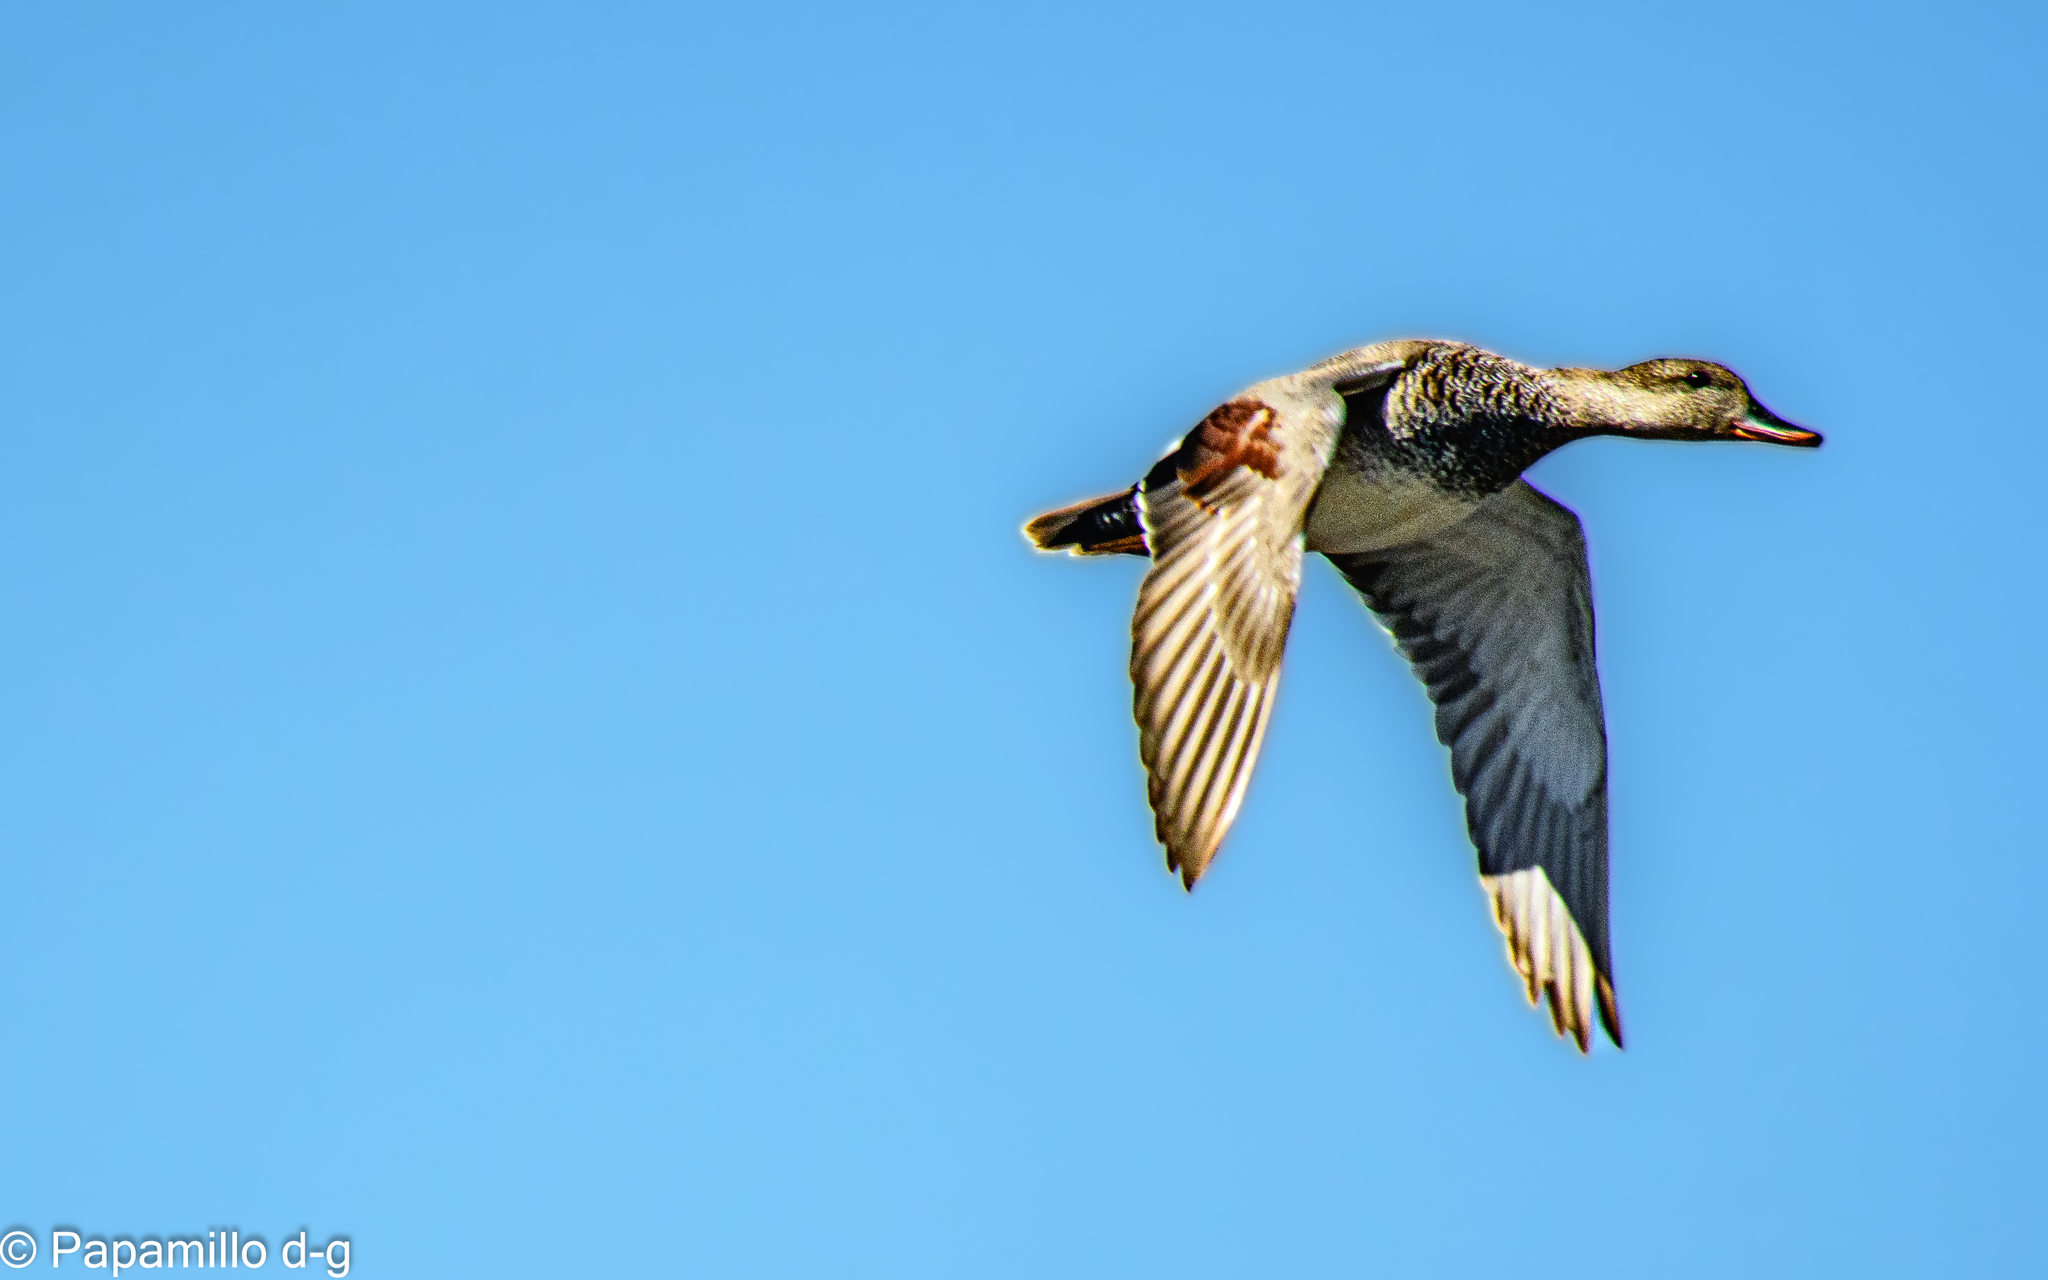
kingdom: Animalia
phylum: Chordata
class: Aves
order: Anseriformes
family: Anatidae
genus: Mareca
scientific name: Mareca strepera
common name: Gadwall
